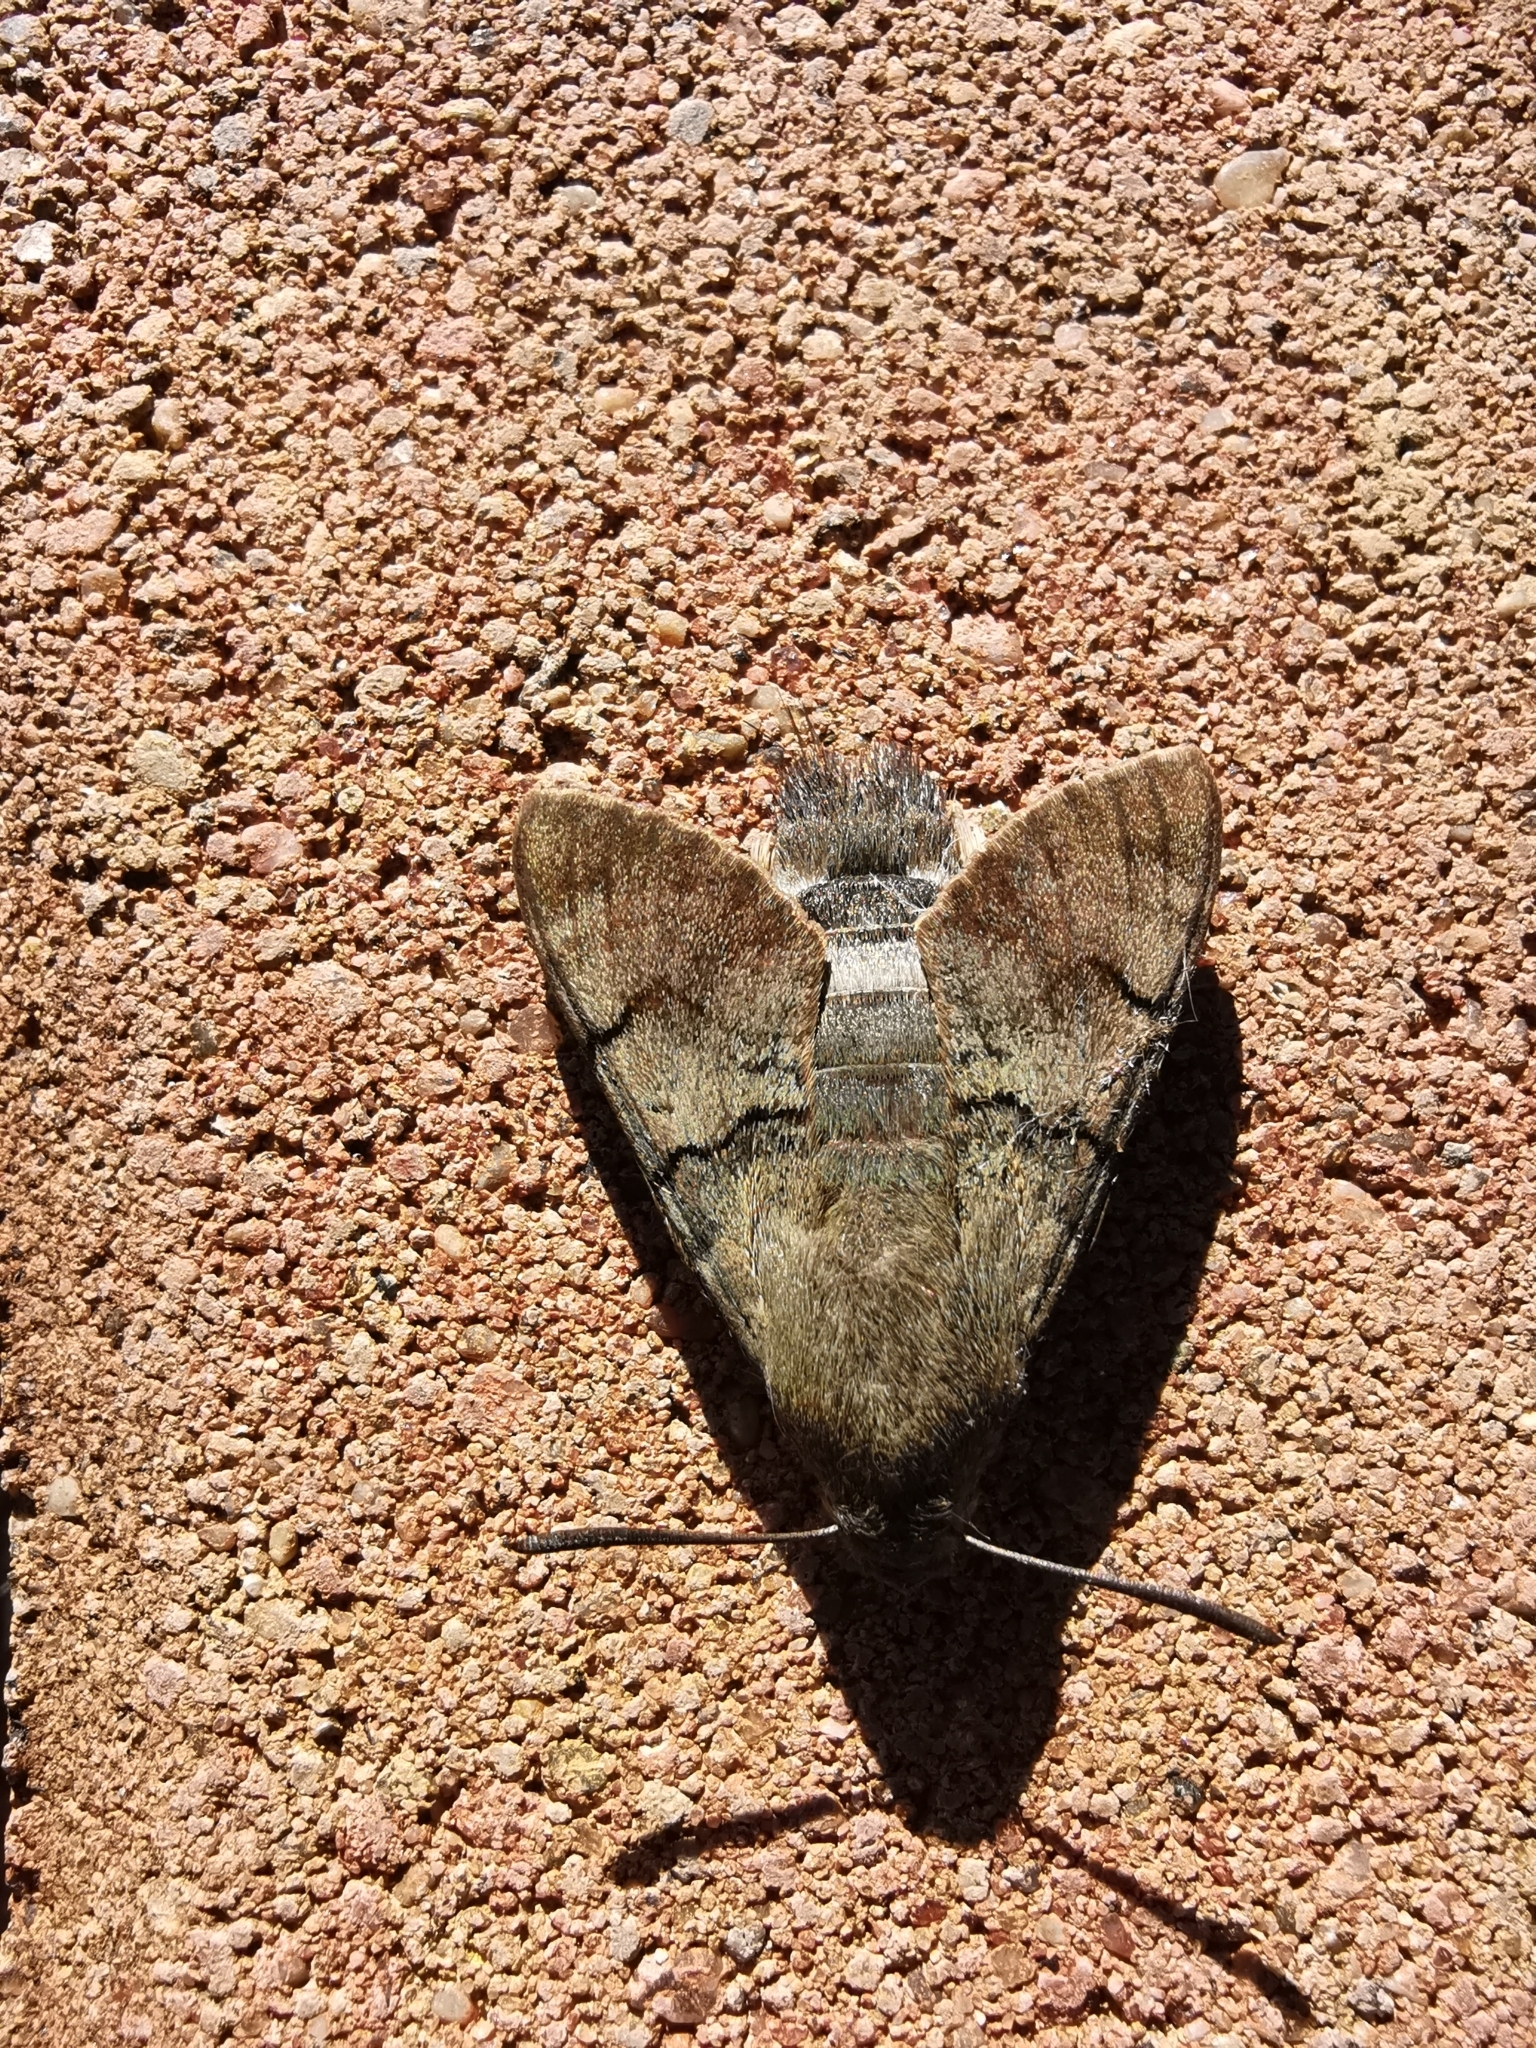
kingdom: Animalia
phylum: Arthropoda
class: Insecta
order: Lepidoptera
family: Sphingidae
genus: Macroglossum
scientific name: Macroglossum stellatarum
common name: Humming-bird hawk-moth
